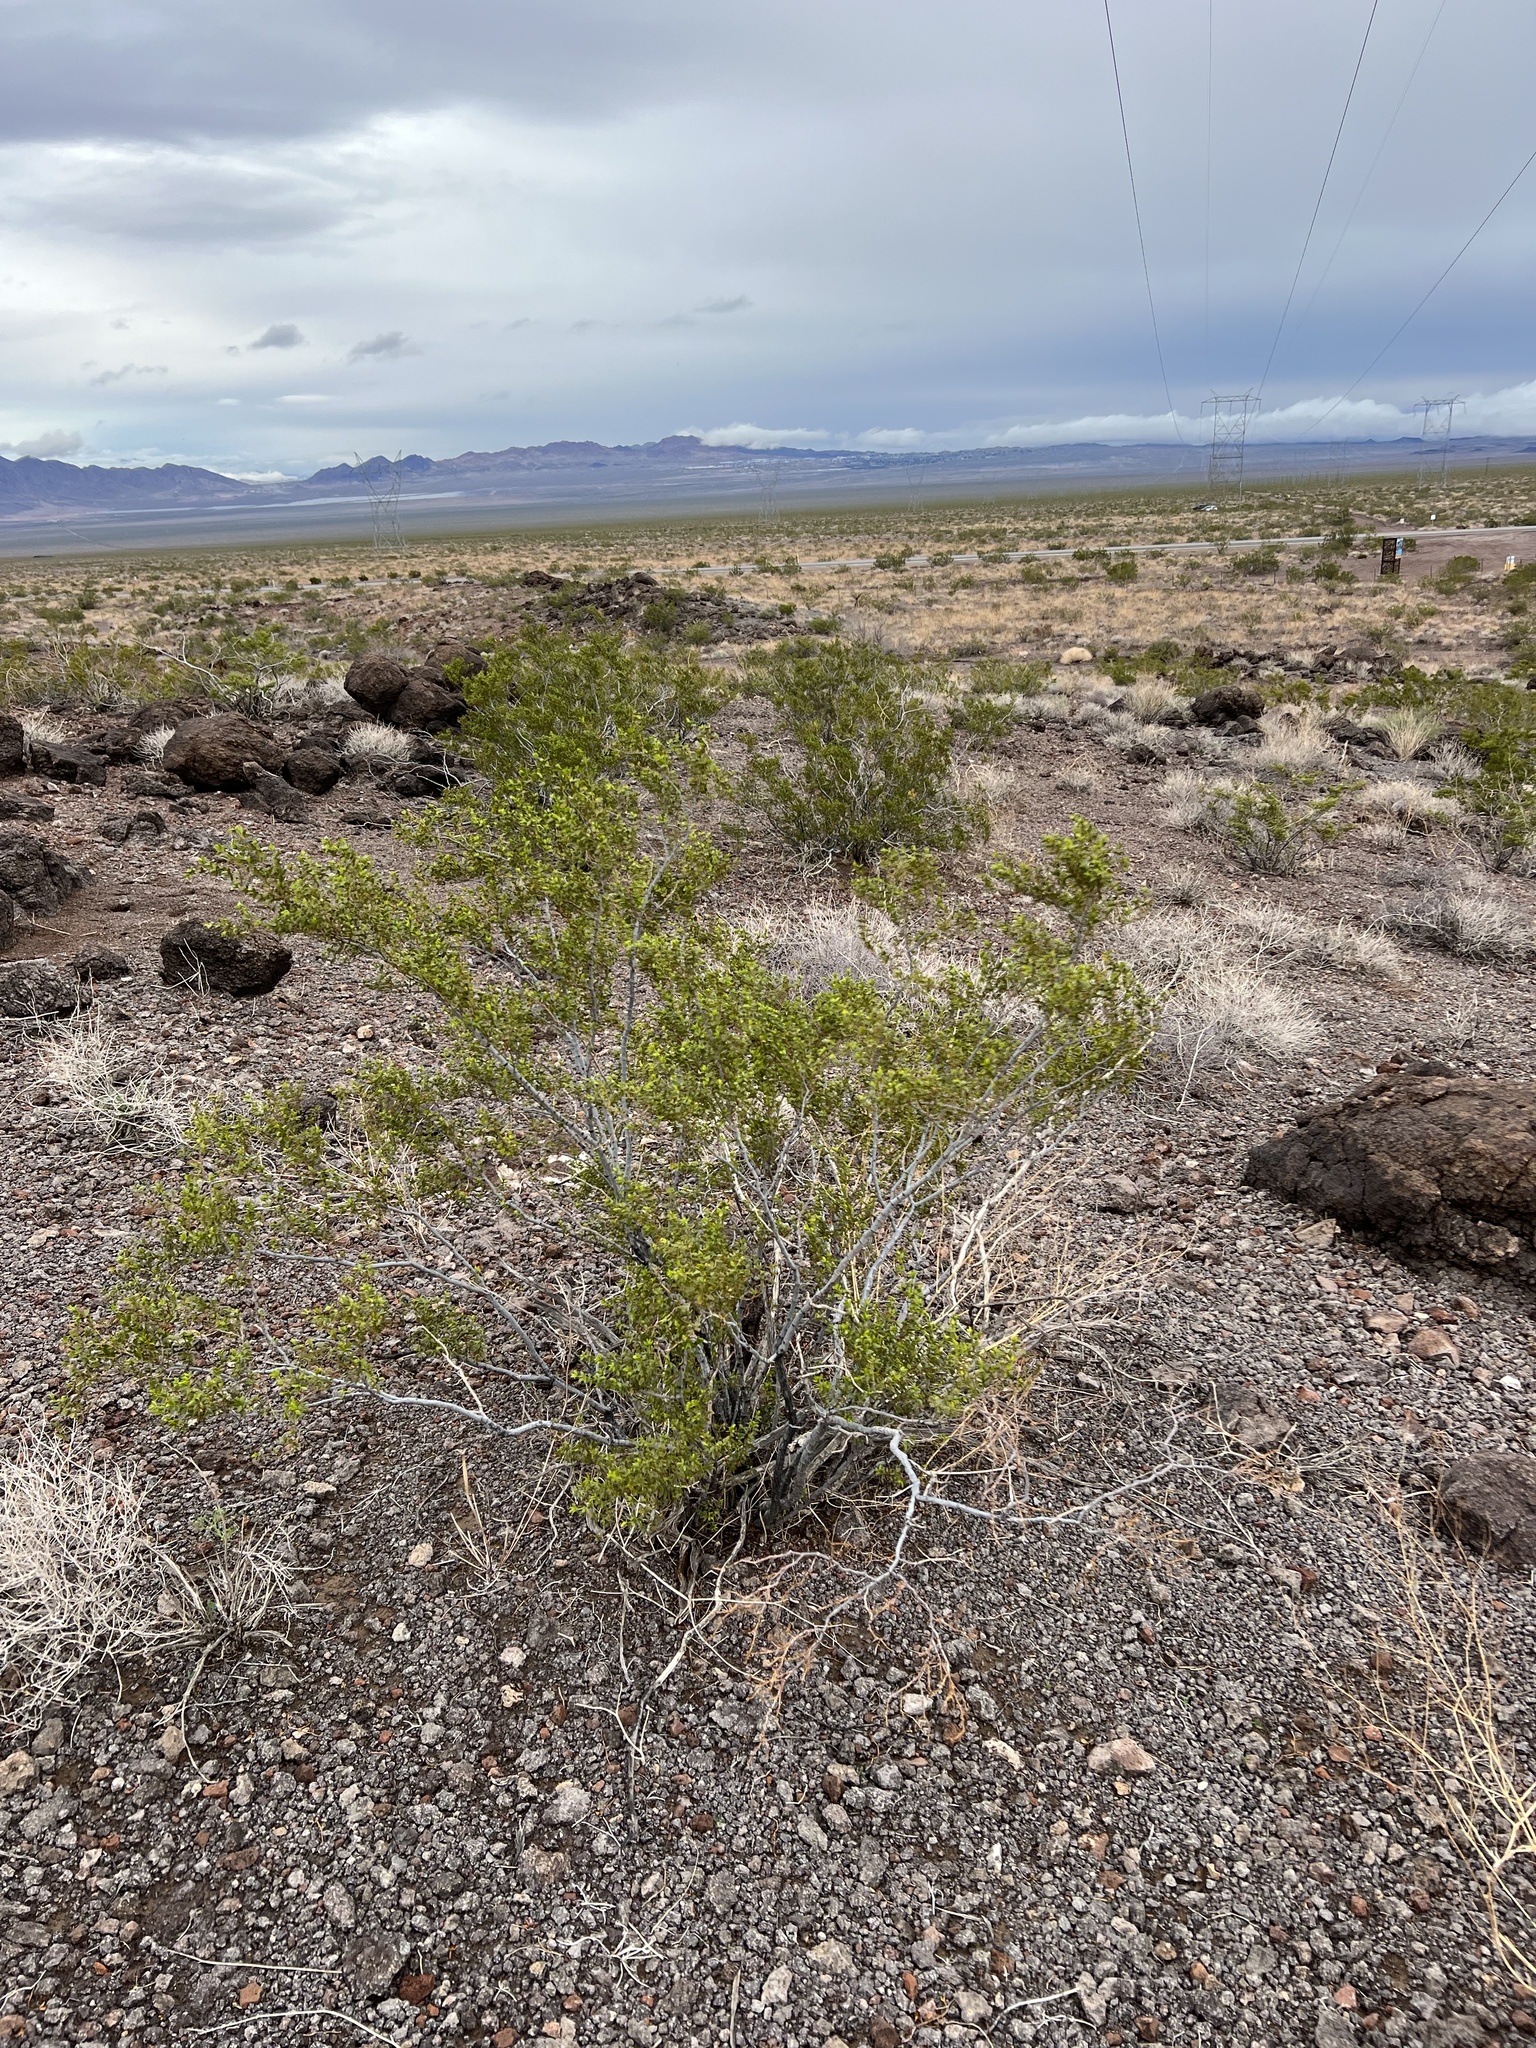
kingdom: Plantae
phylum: Tracheophyta
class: Magnoliopsida
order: Zygophyllales
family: Zygophyllaceae
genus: Larrea
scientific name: Larrea tridentata
